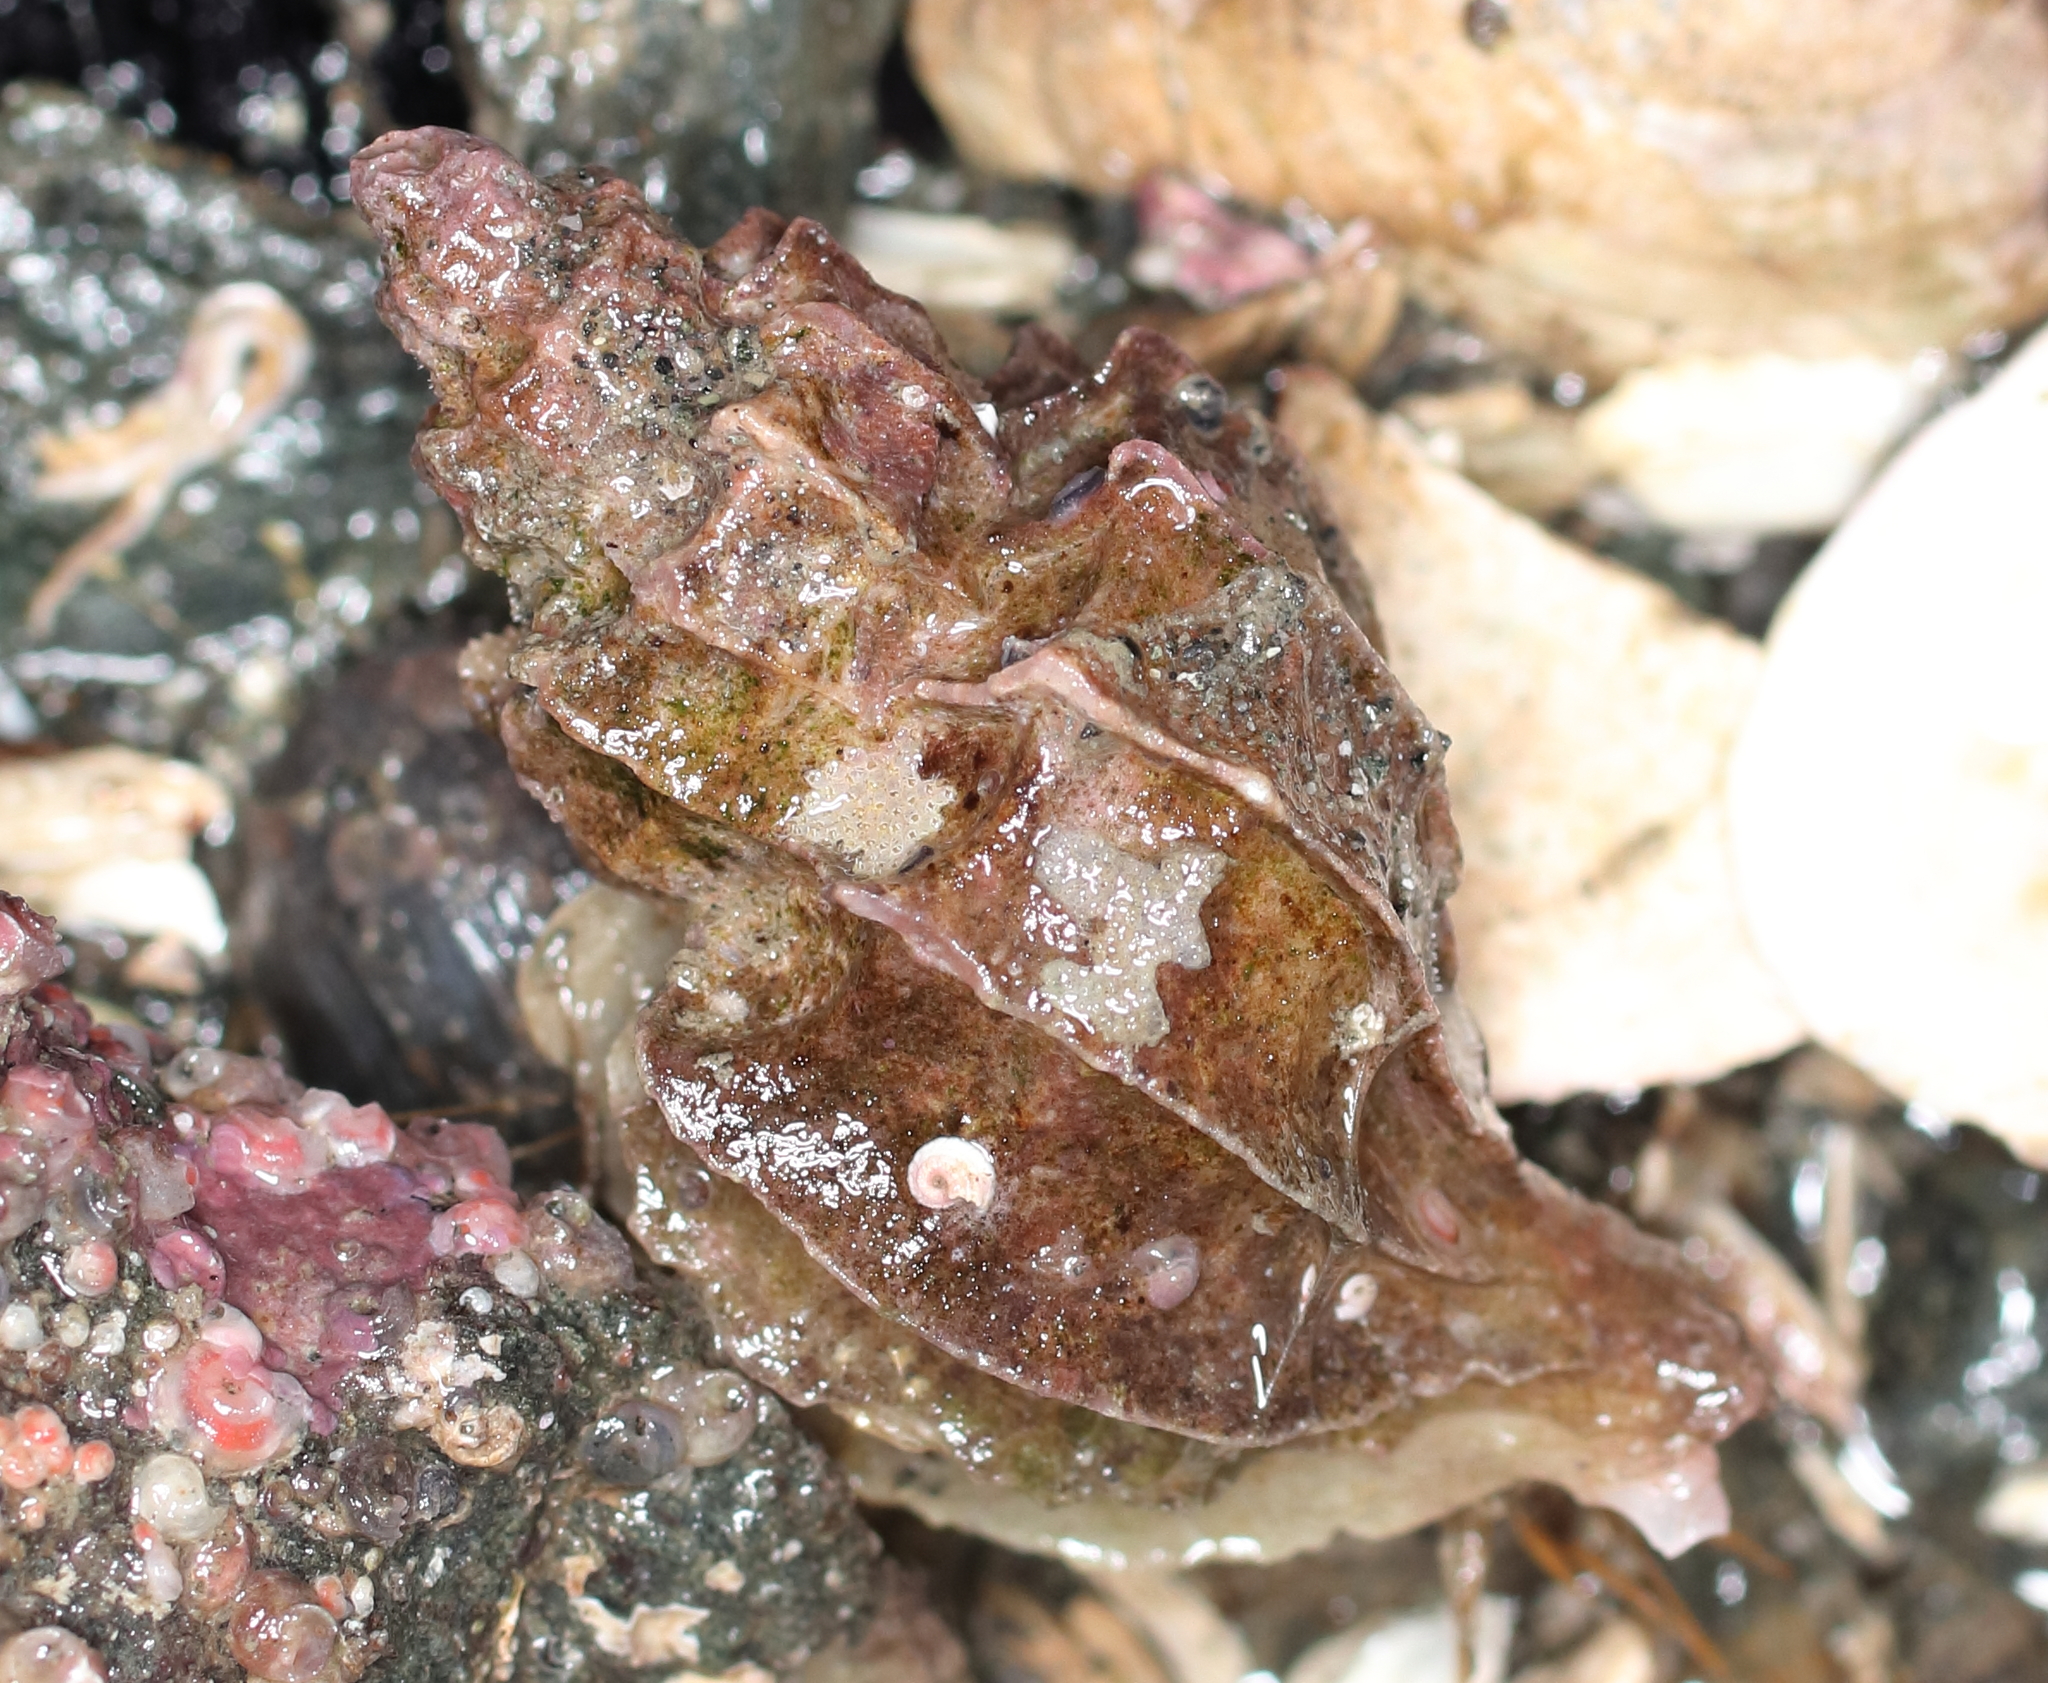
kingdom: Animalia
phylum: Mollusca
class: Gastropoda
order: Neogastropoda
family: Muricidae
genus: Scabrotrophon
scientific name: Scabrotrophon stuarti
